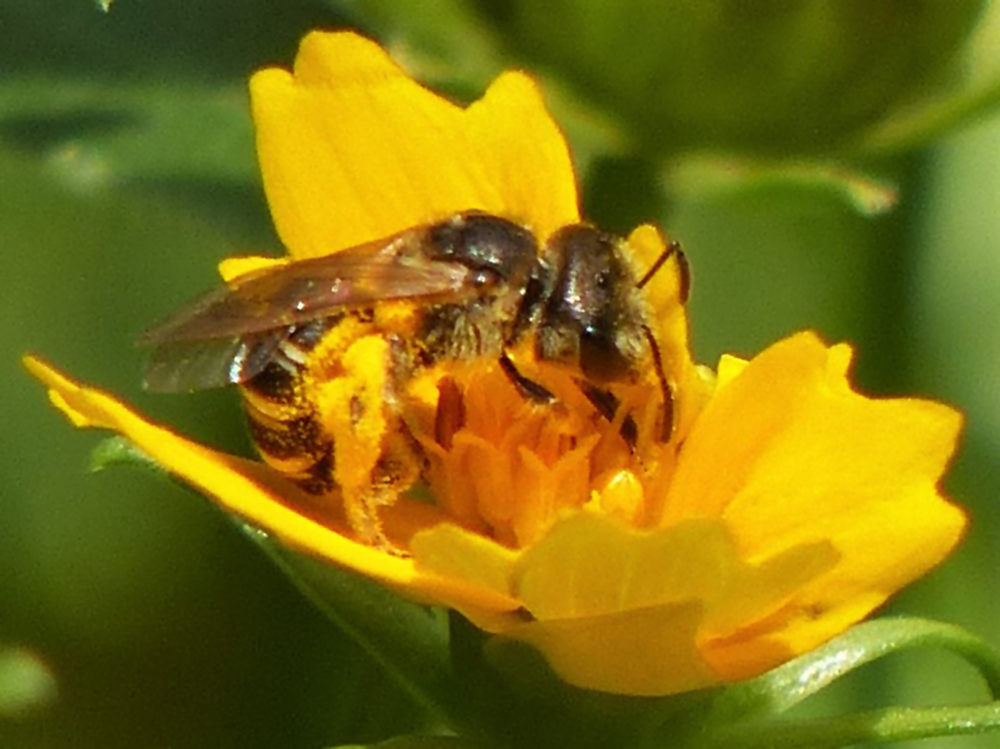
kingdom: Animalia
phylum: Arthropoda
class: Insecta
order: Hymenoptera
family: Halictidae
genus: Halictus
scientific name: Halictus ligatus
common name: Ligated furrow bee
